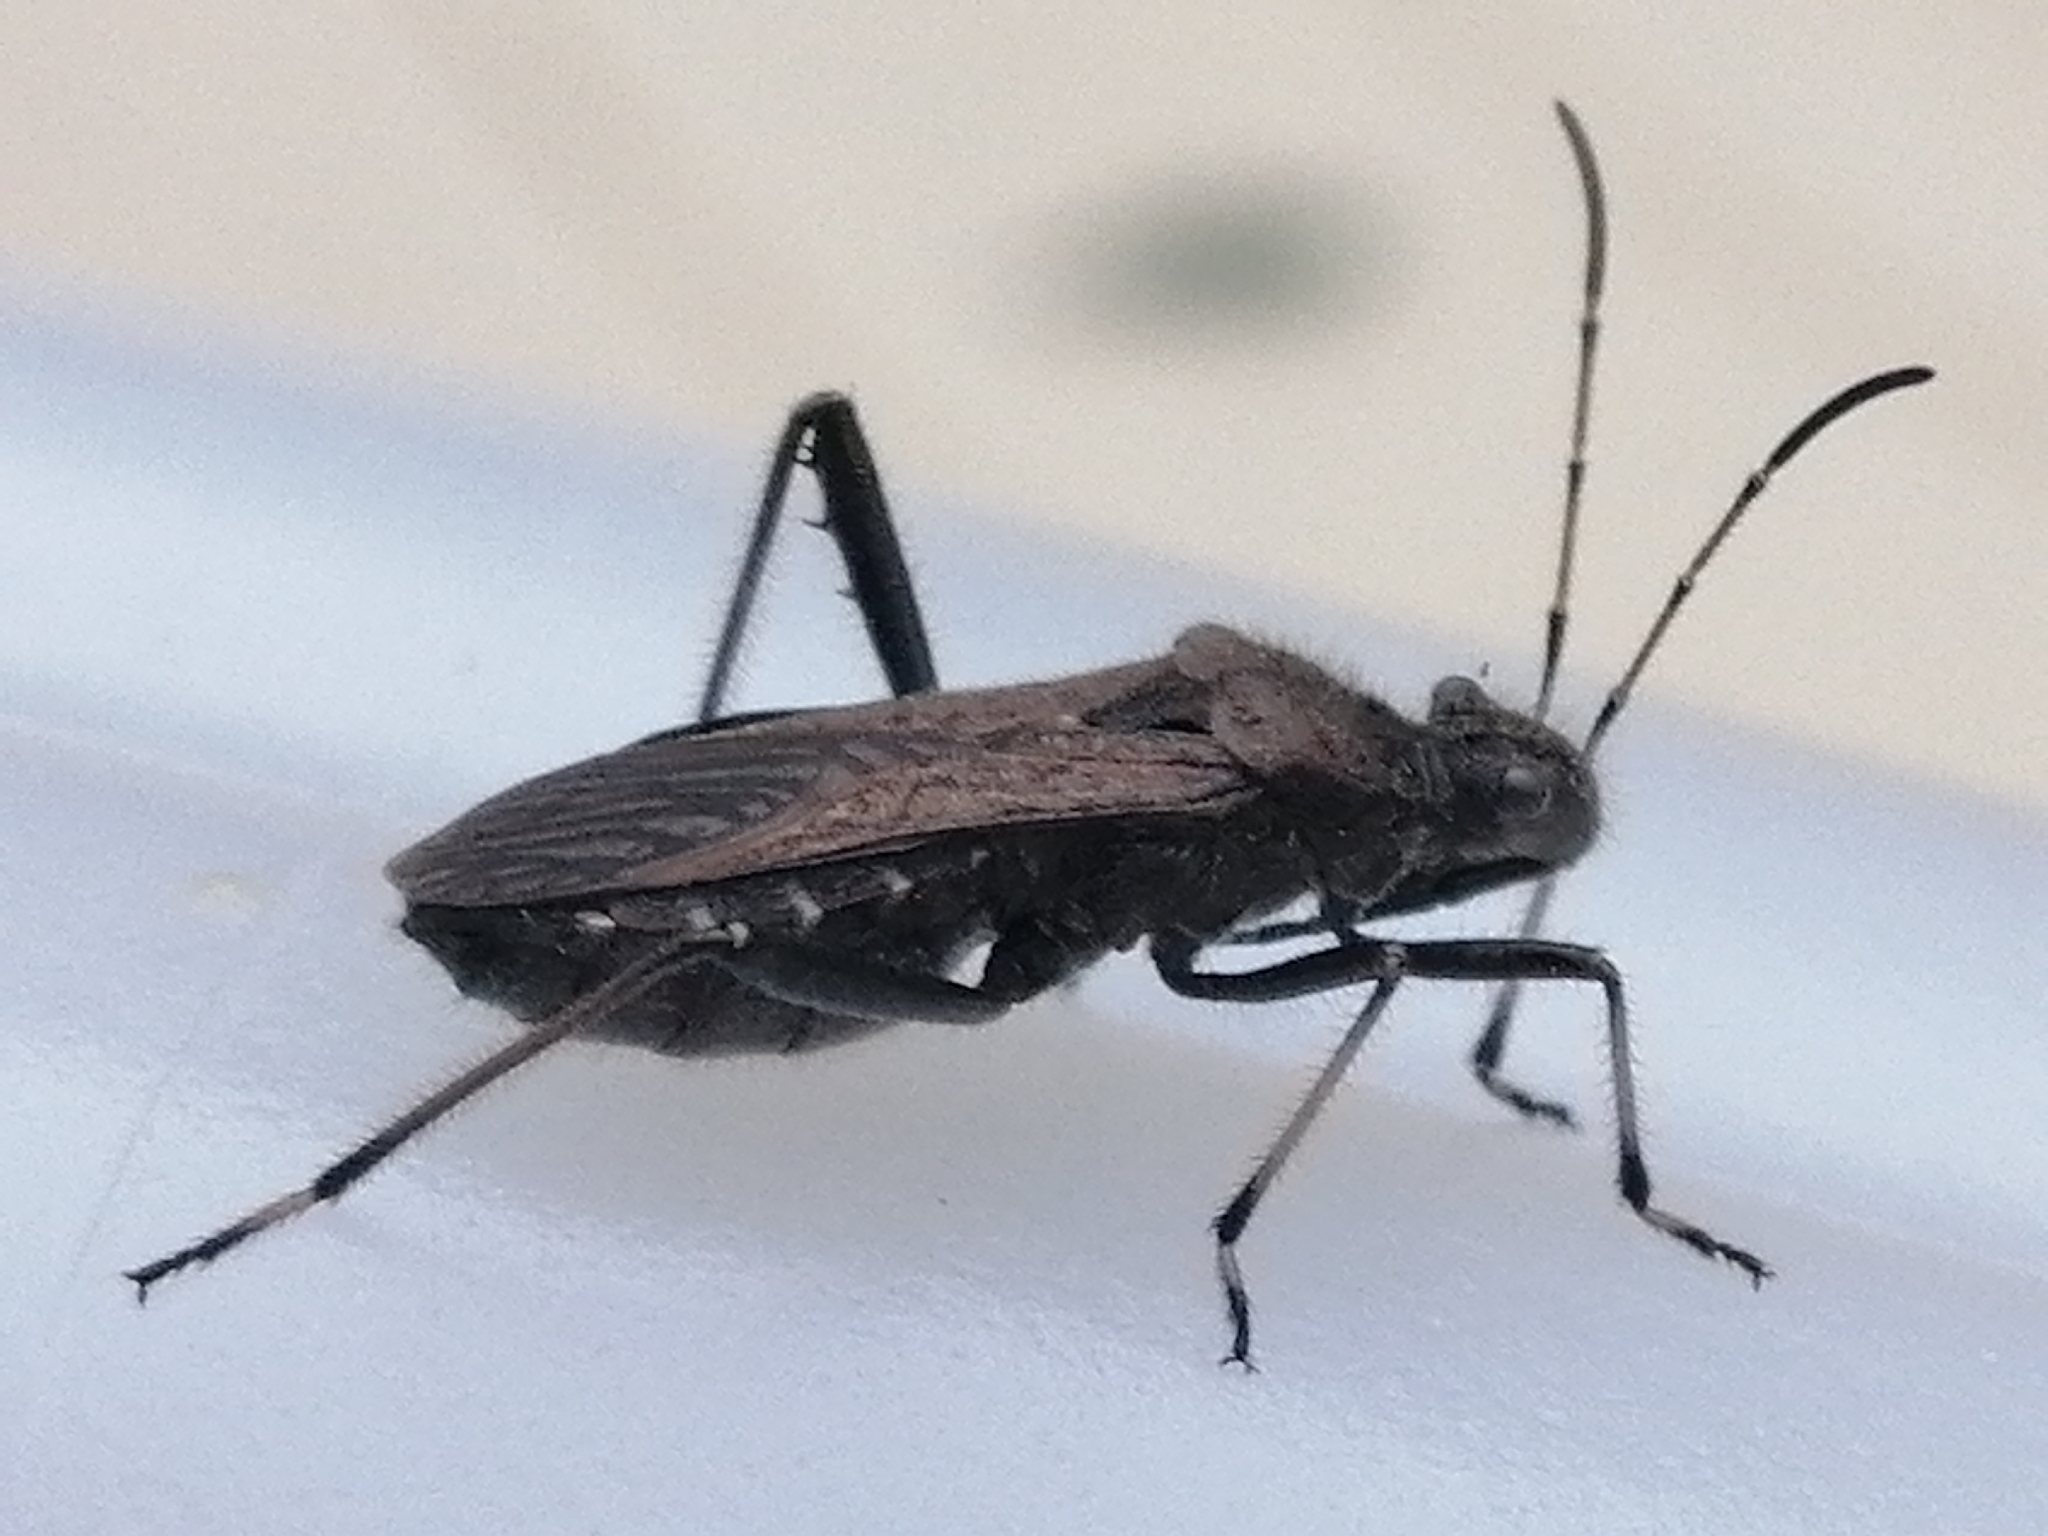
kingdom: Animalia
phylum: Arthropoda
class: Insecta
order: Hemiptera
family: Alydidae
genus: Alydus
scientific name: Alydus calcaratus
